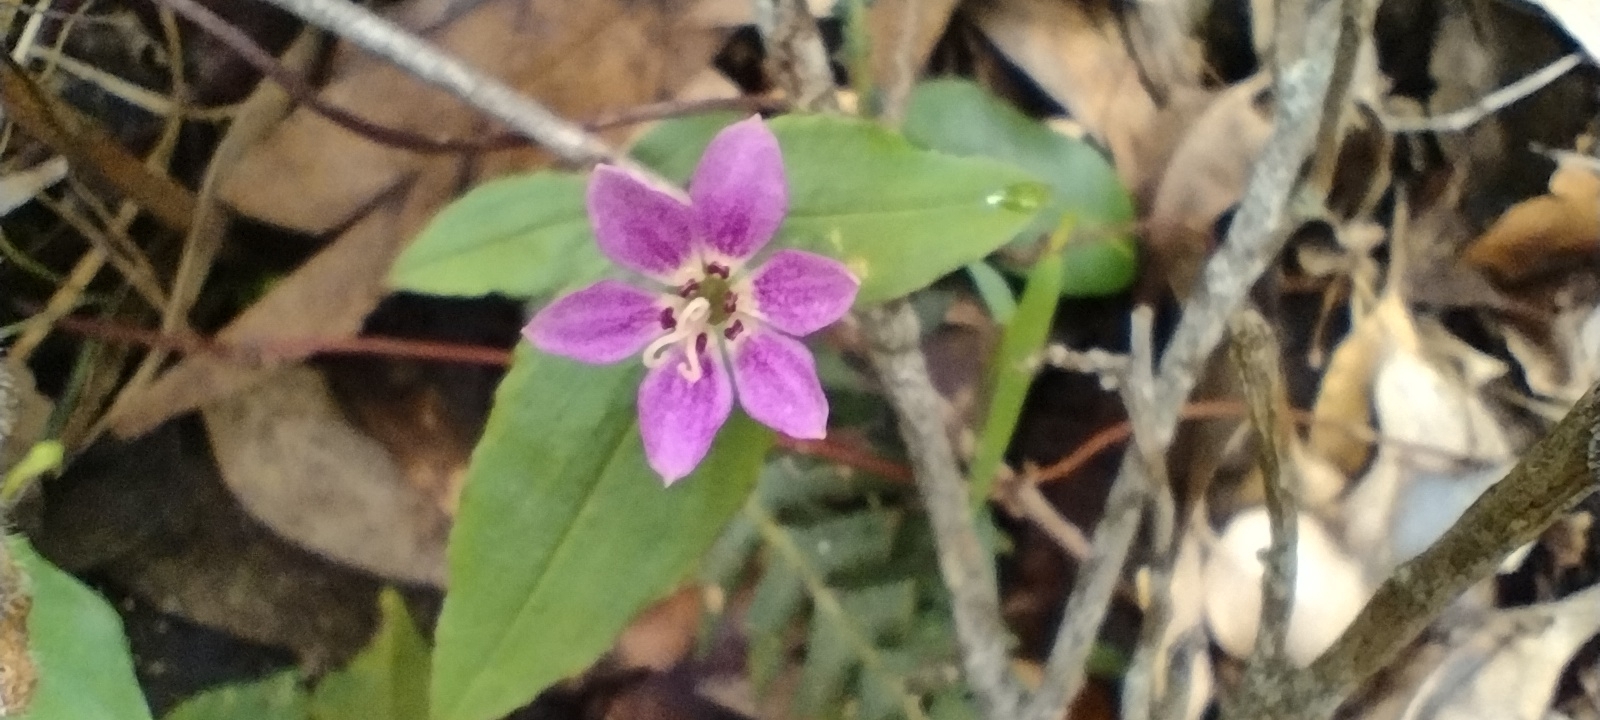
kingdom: Plantae
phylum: Tracheophyta
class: Liliopsida
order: Liliales
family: Colchicaceae
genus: Schelhammera
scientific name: Schelhammera undulata
